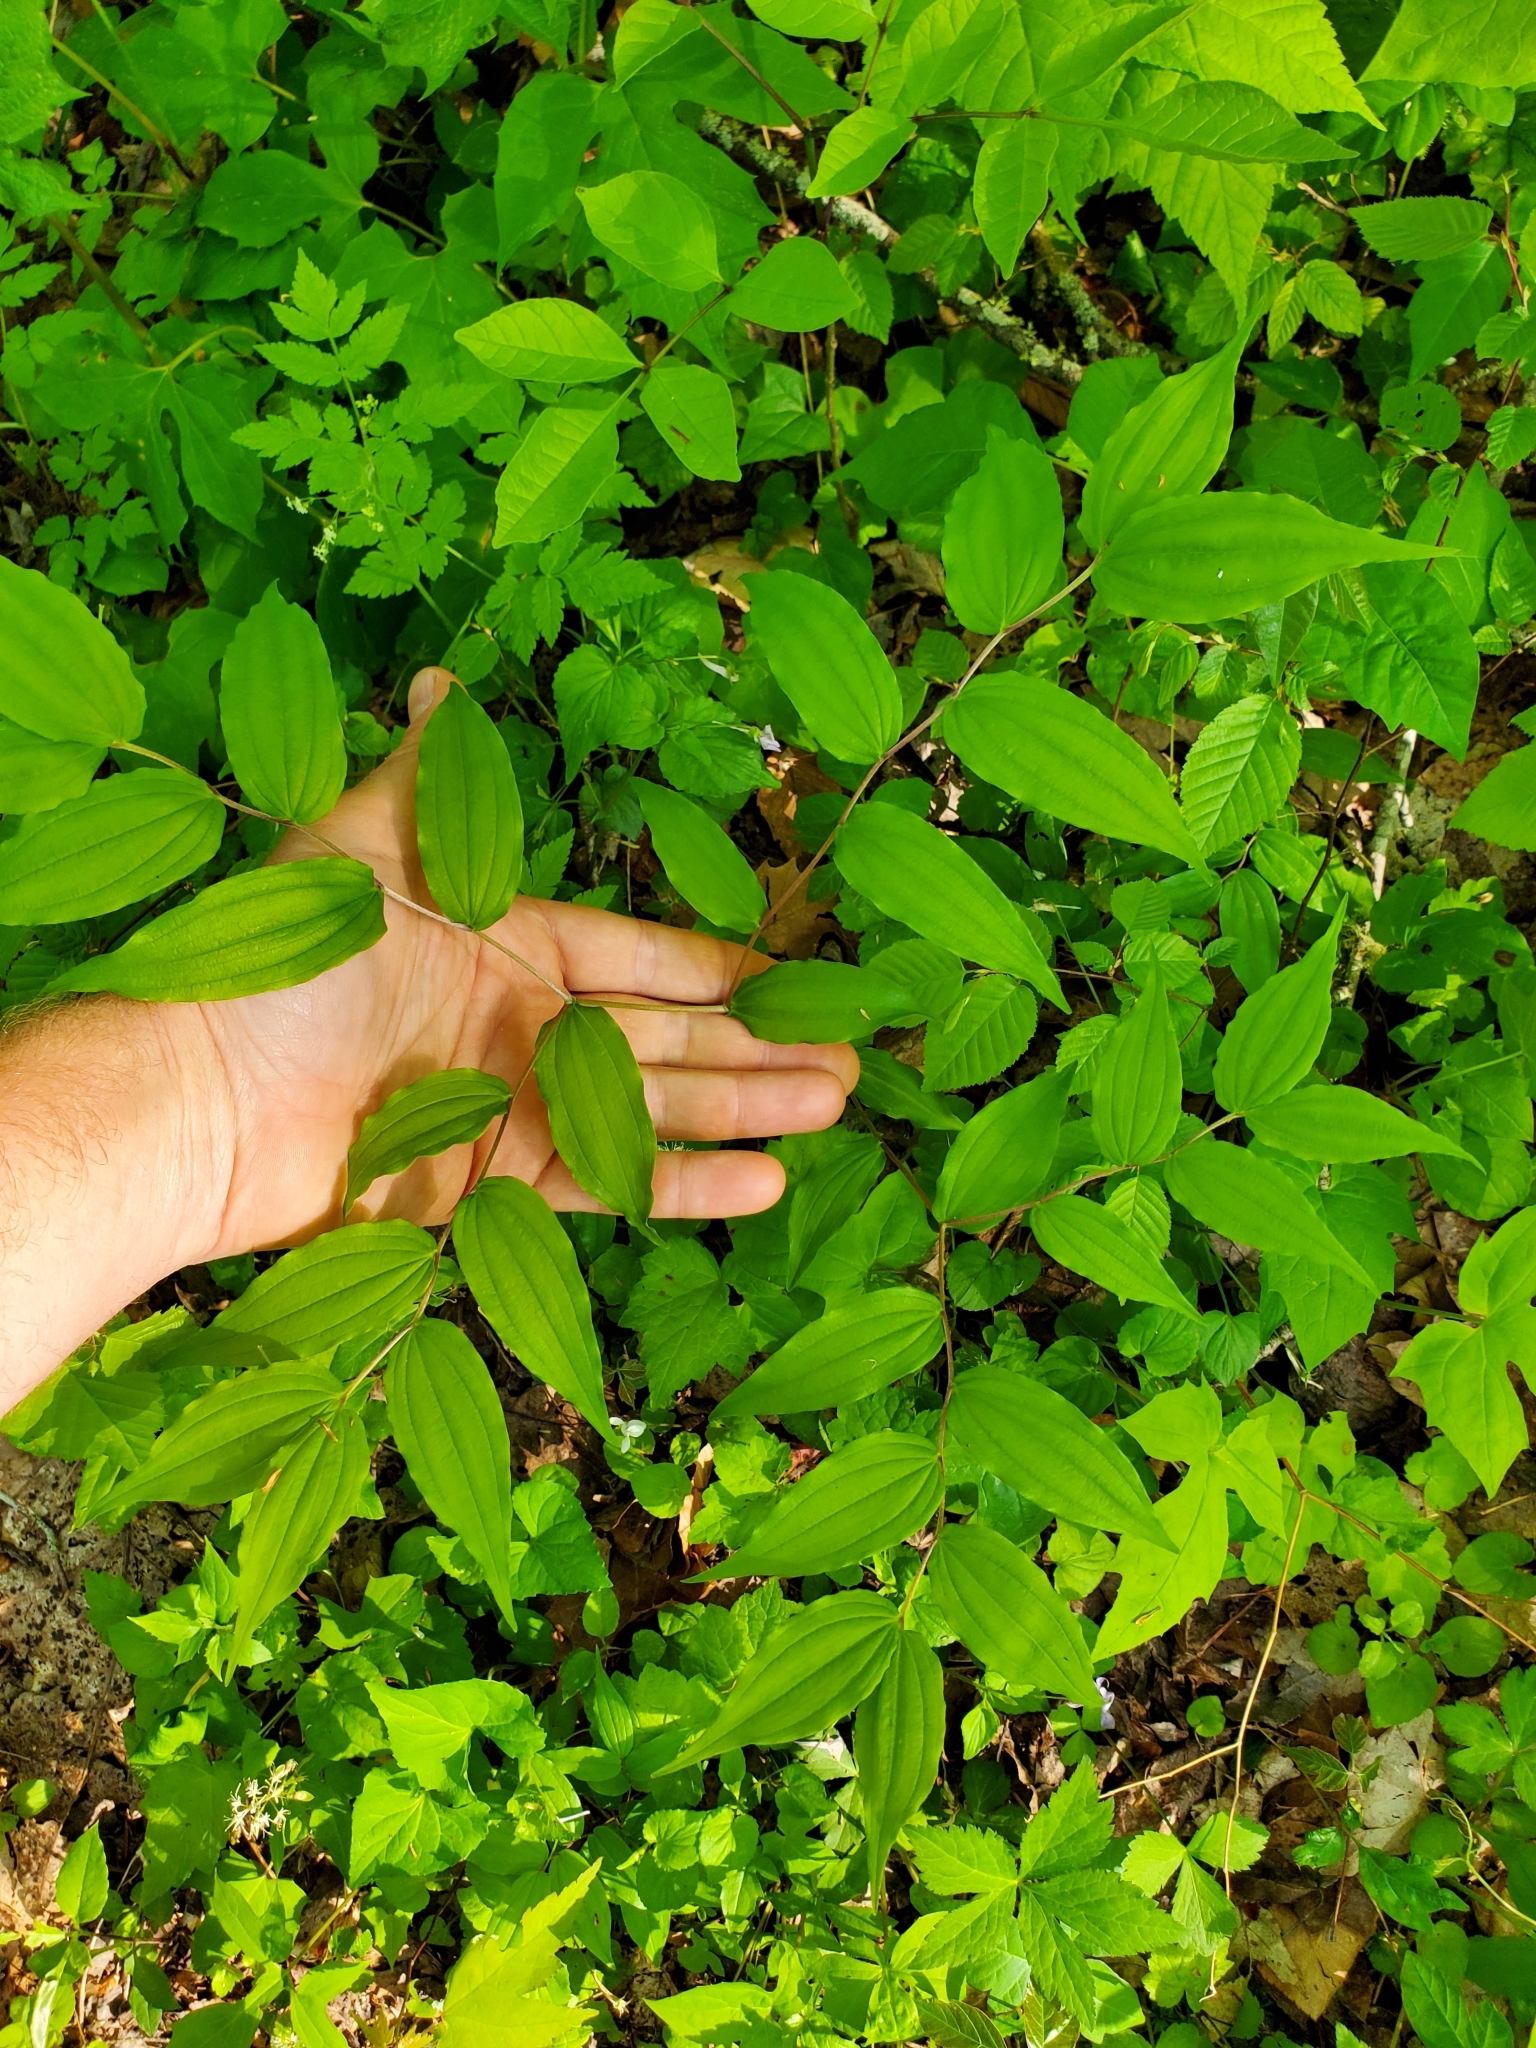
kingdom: Plantae
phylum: Tracheophyta
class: Liliopsida
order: Liliales
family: Liliaceae
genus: Prosartes
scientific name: Prosartes lanuginosa
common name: Hairy mandarin
